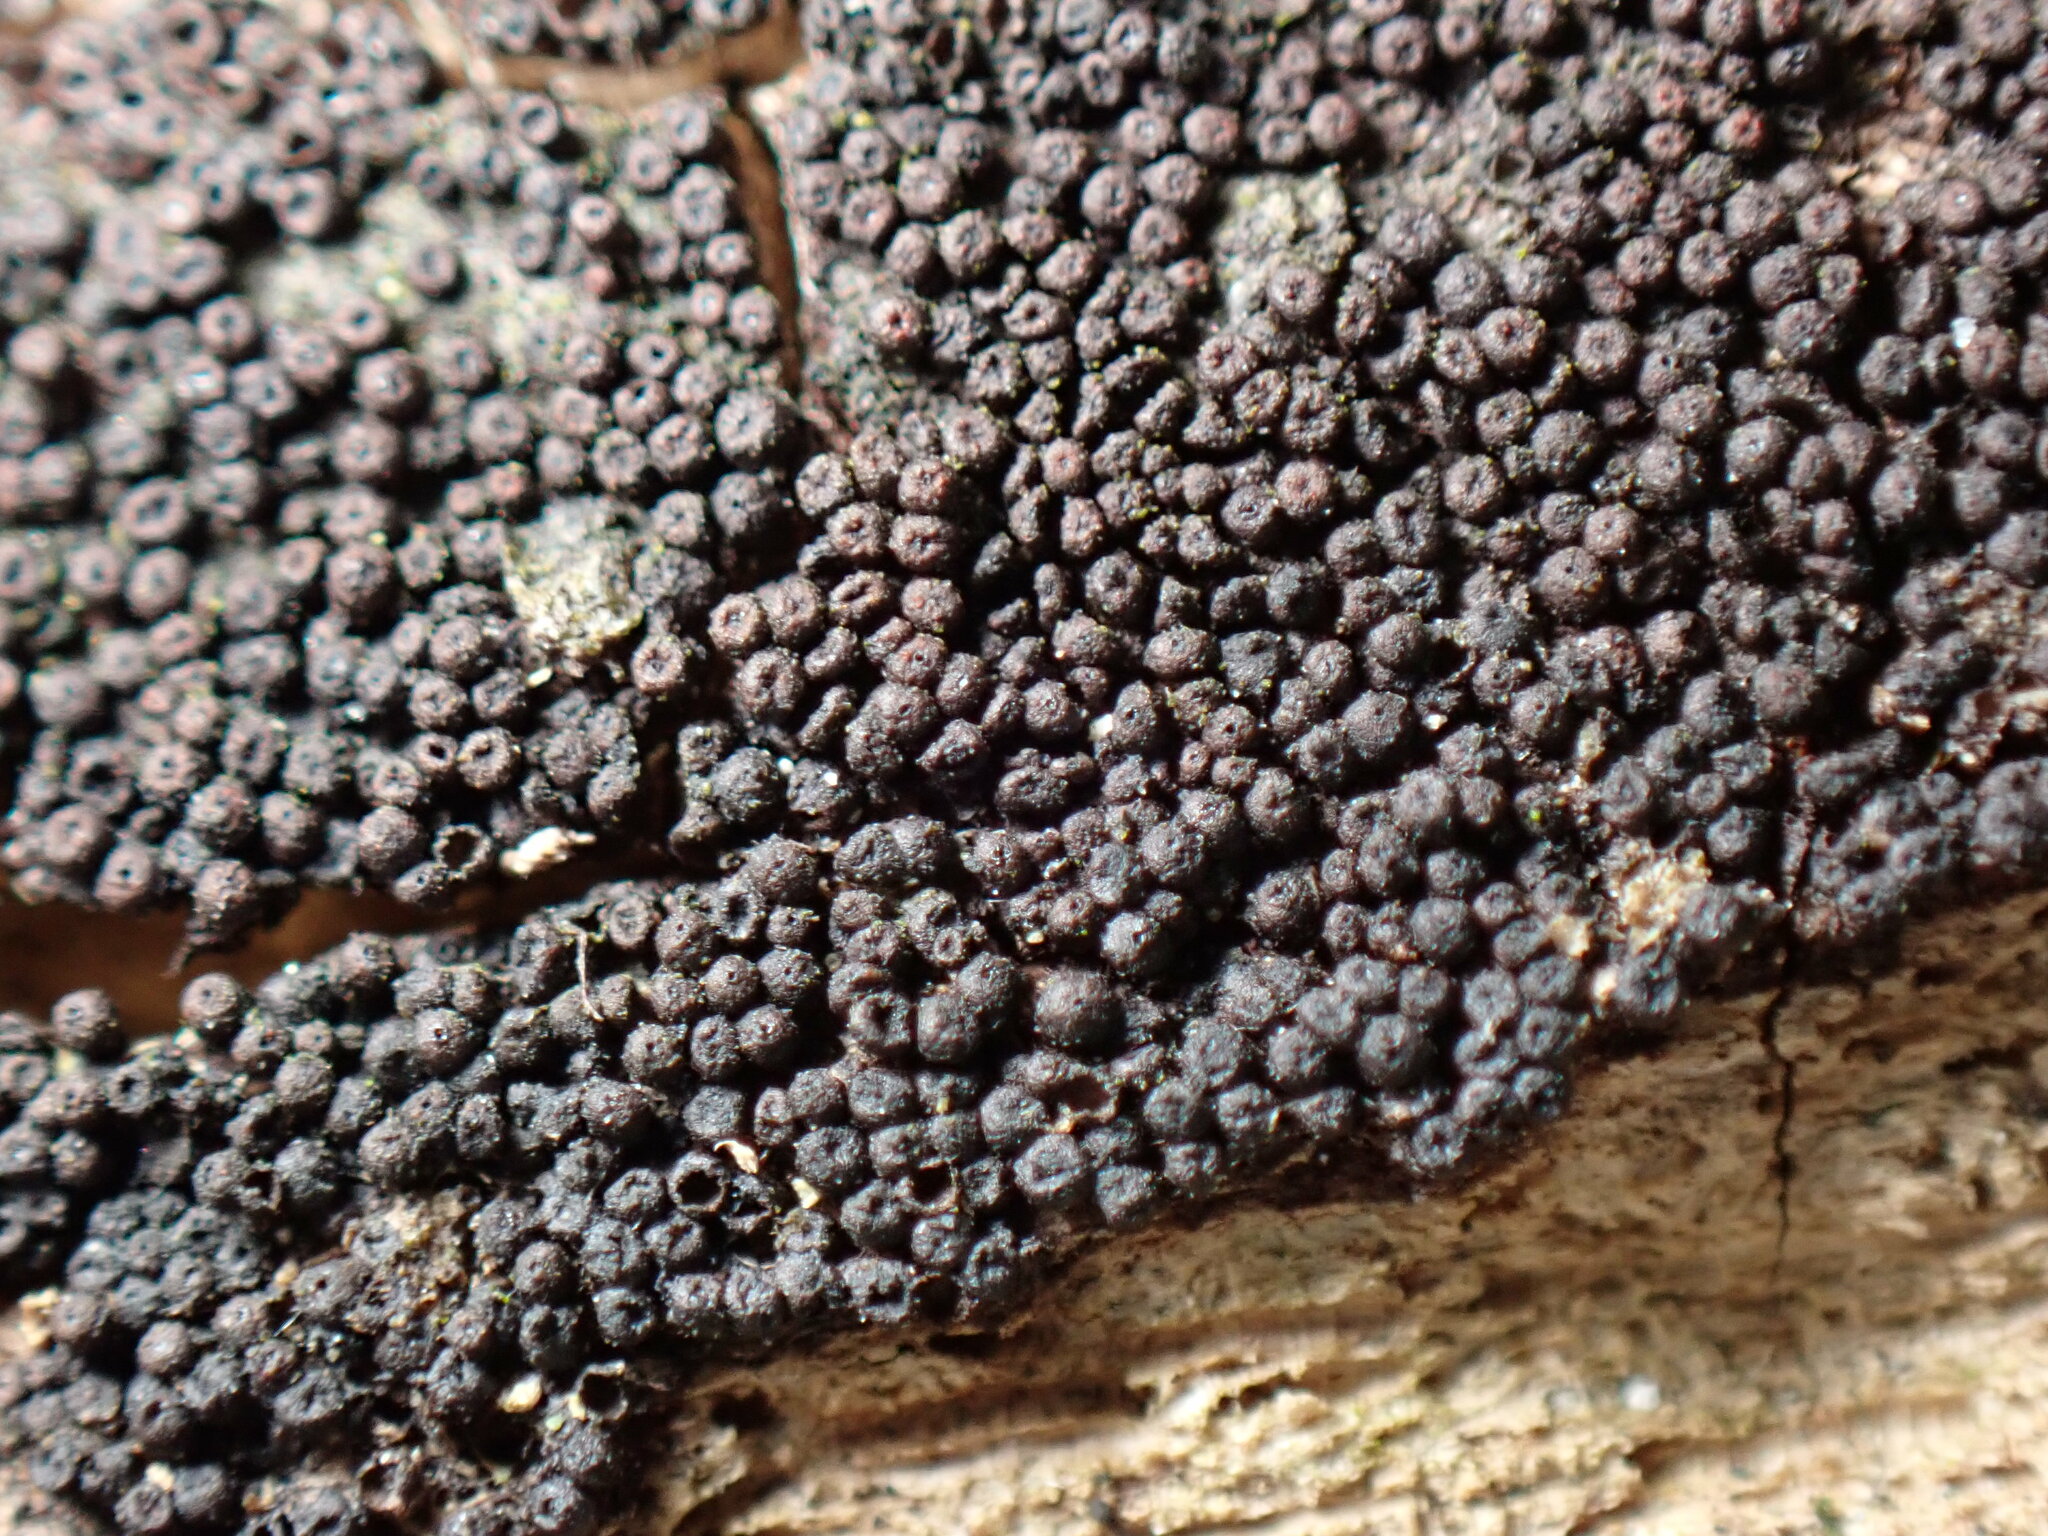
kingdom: Fungi
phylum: Ascomycota
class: Dothideomycetes
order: Pleosporales
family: Melanommataceae
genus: Byssosphaeria
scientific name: Byssosphaeria rhodomphala
